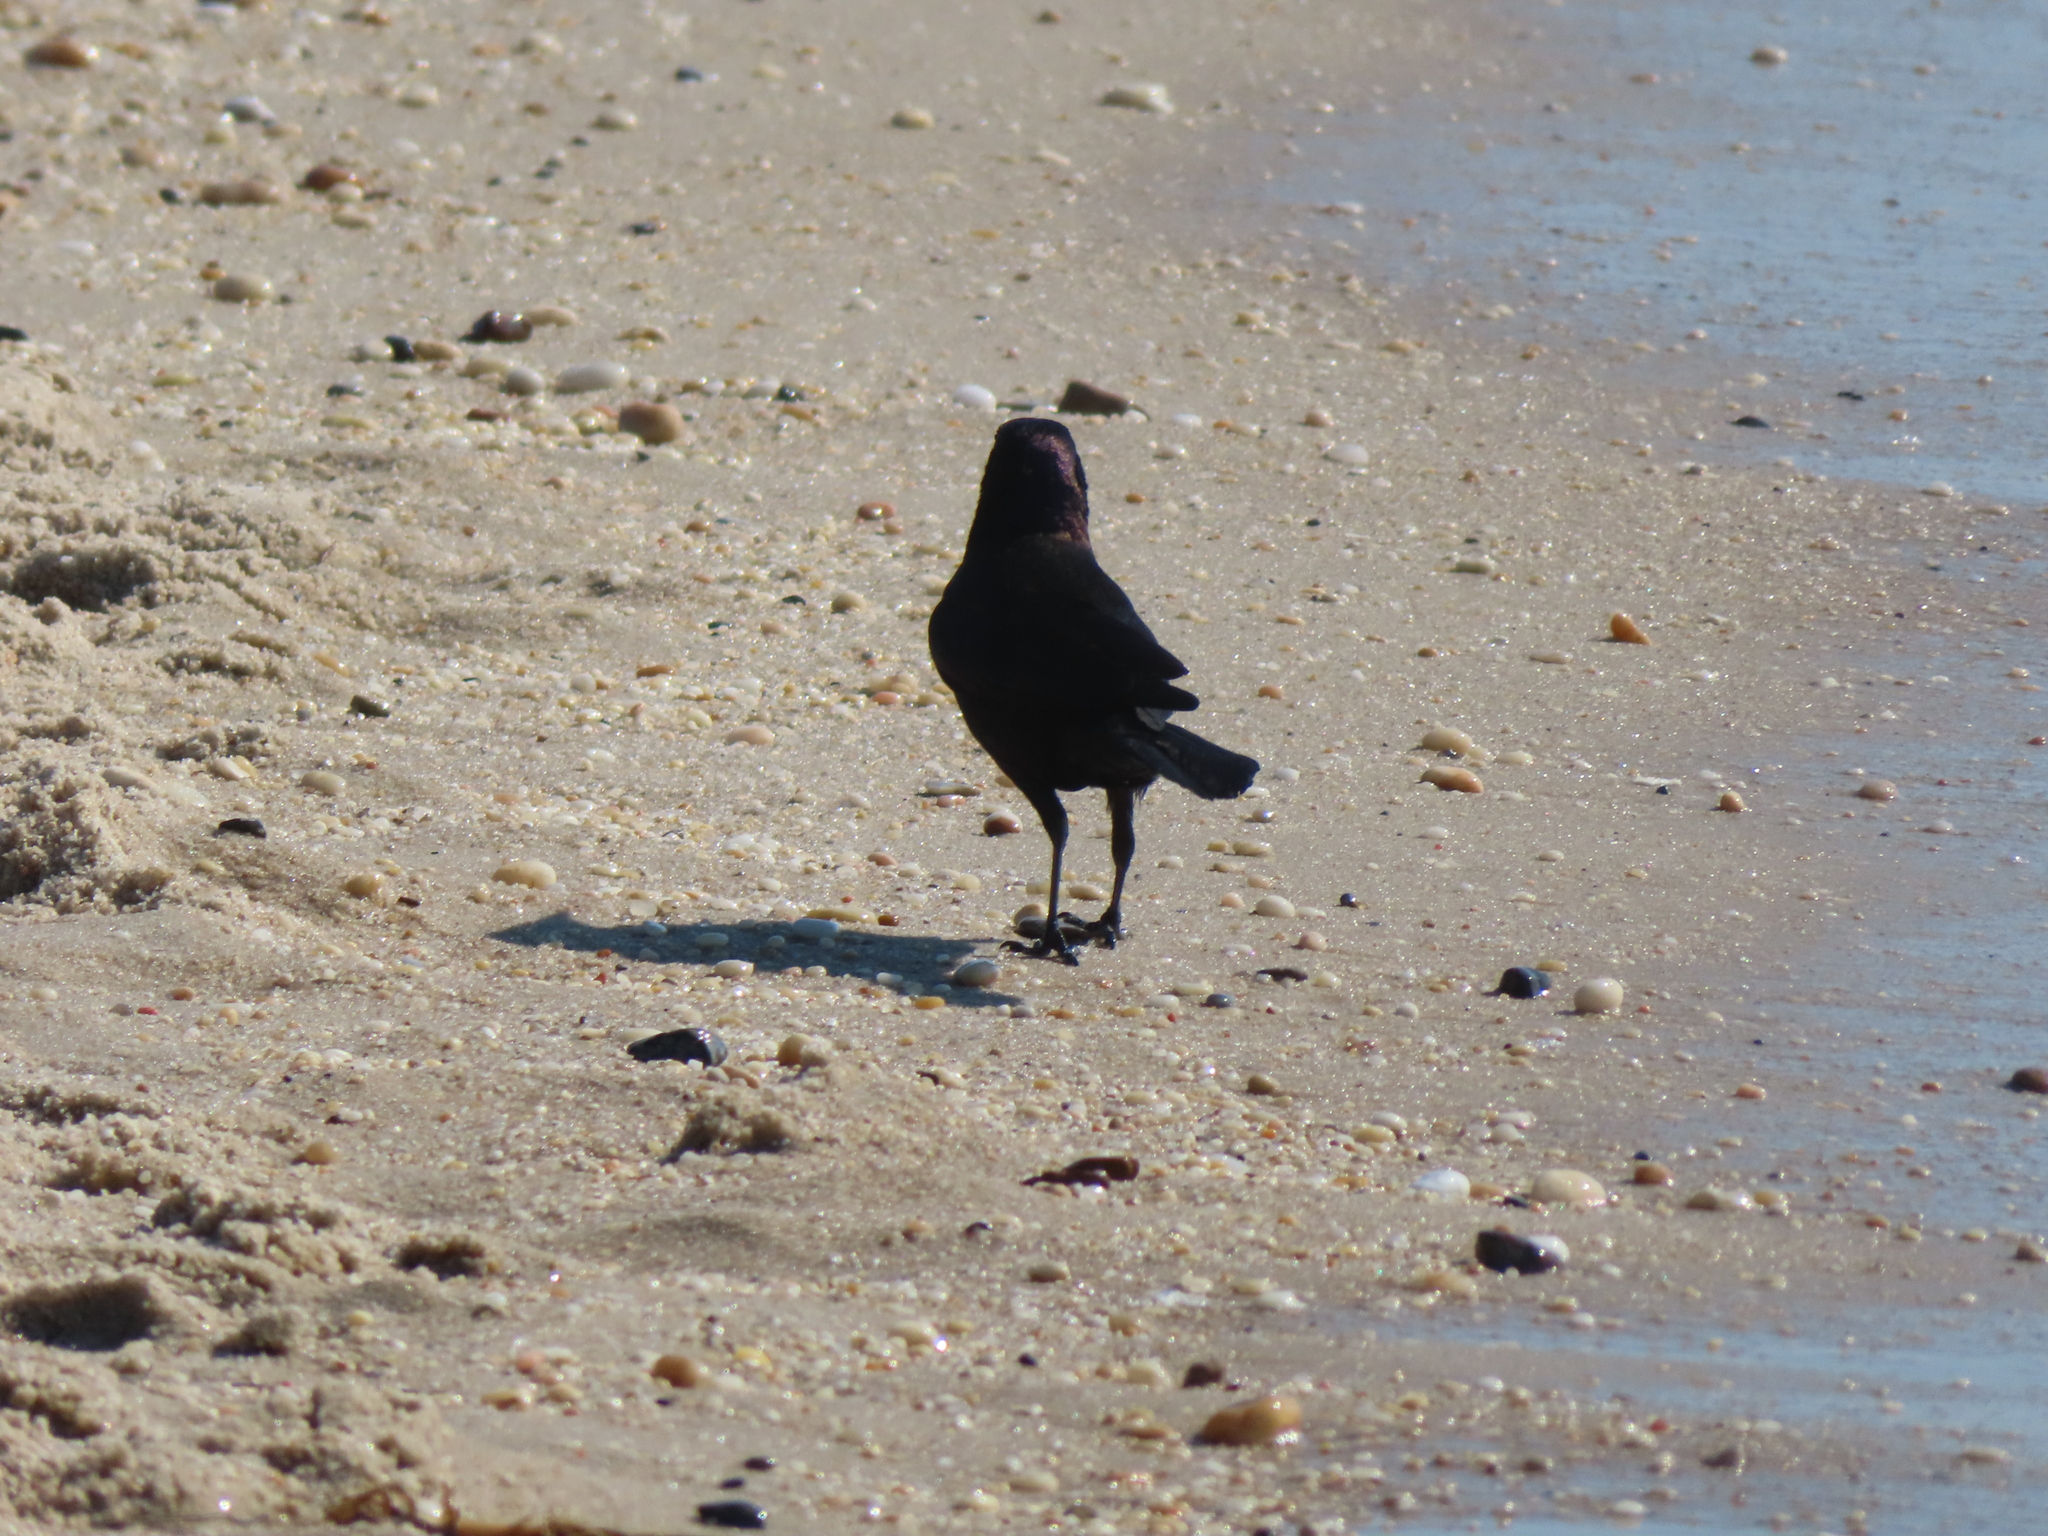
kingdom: Animalia
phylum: Chordata
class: Aves
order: Passeriformes
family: Icteridae
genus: Quiscalus
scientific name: Quiscalus quiscula
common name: Common grackle
